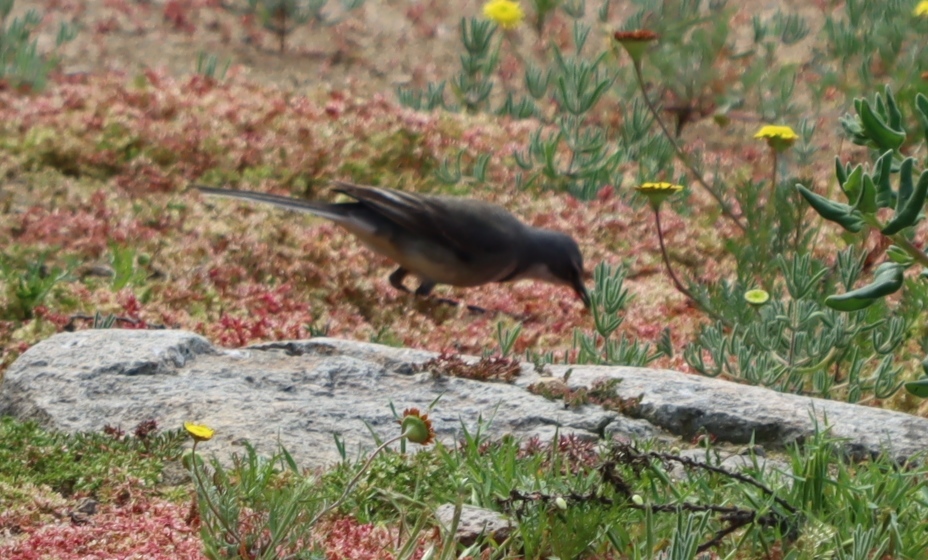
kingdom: Animalia
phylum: Chordata
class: Aves
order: Passeriformes
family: Motacillidae
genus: Motacilla
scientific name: Motacilla capensis
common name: Cape wagtail
